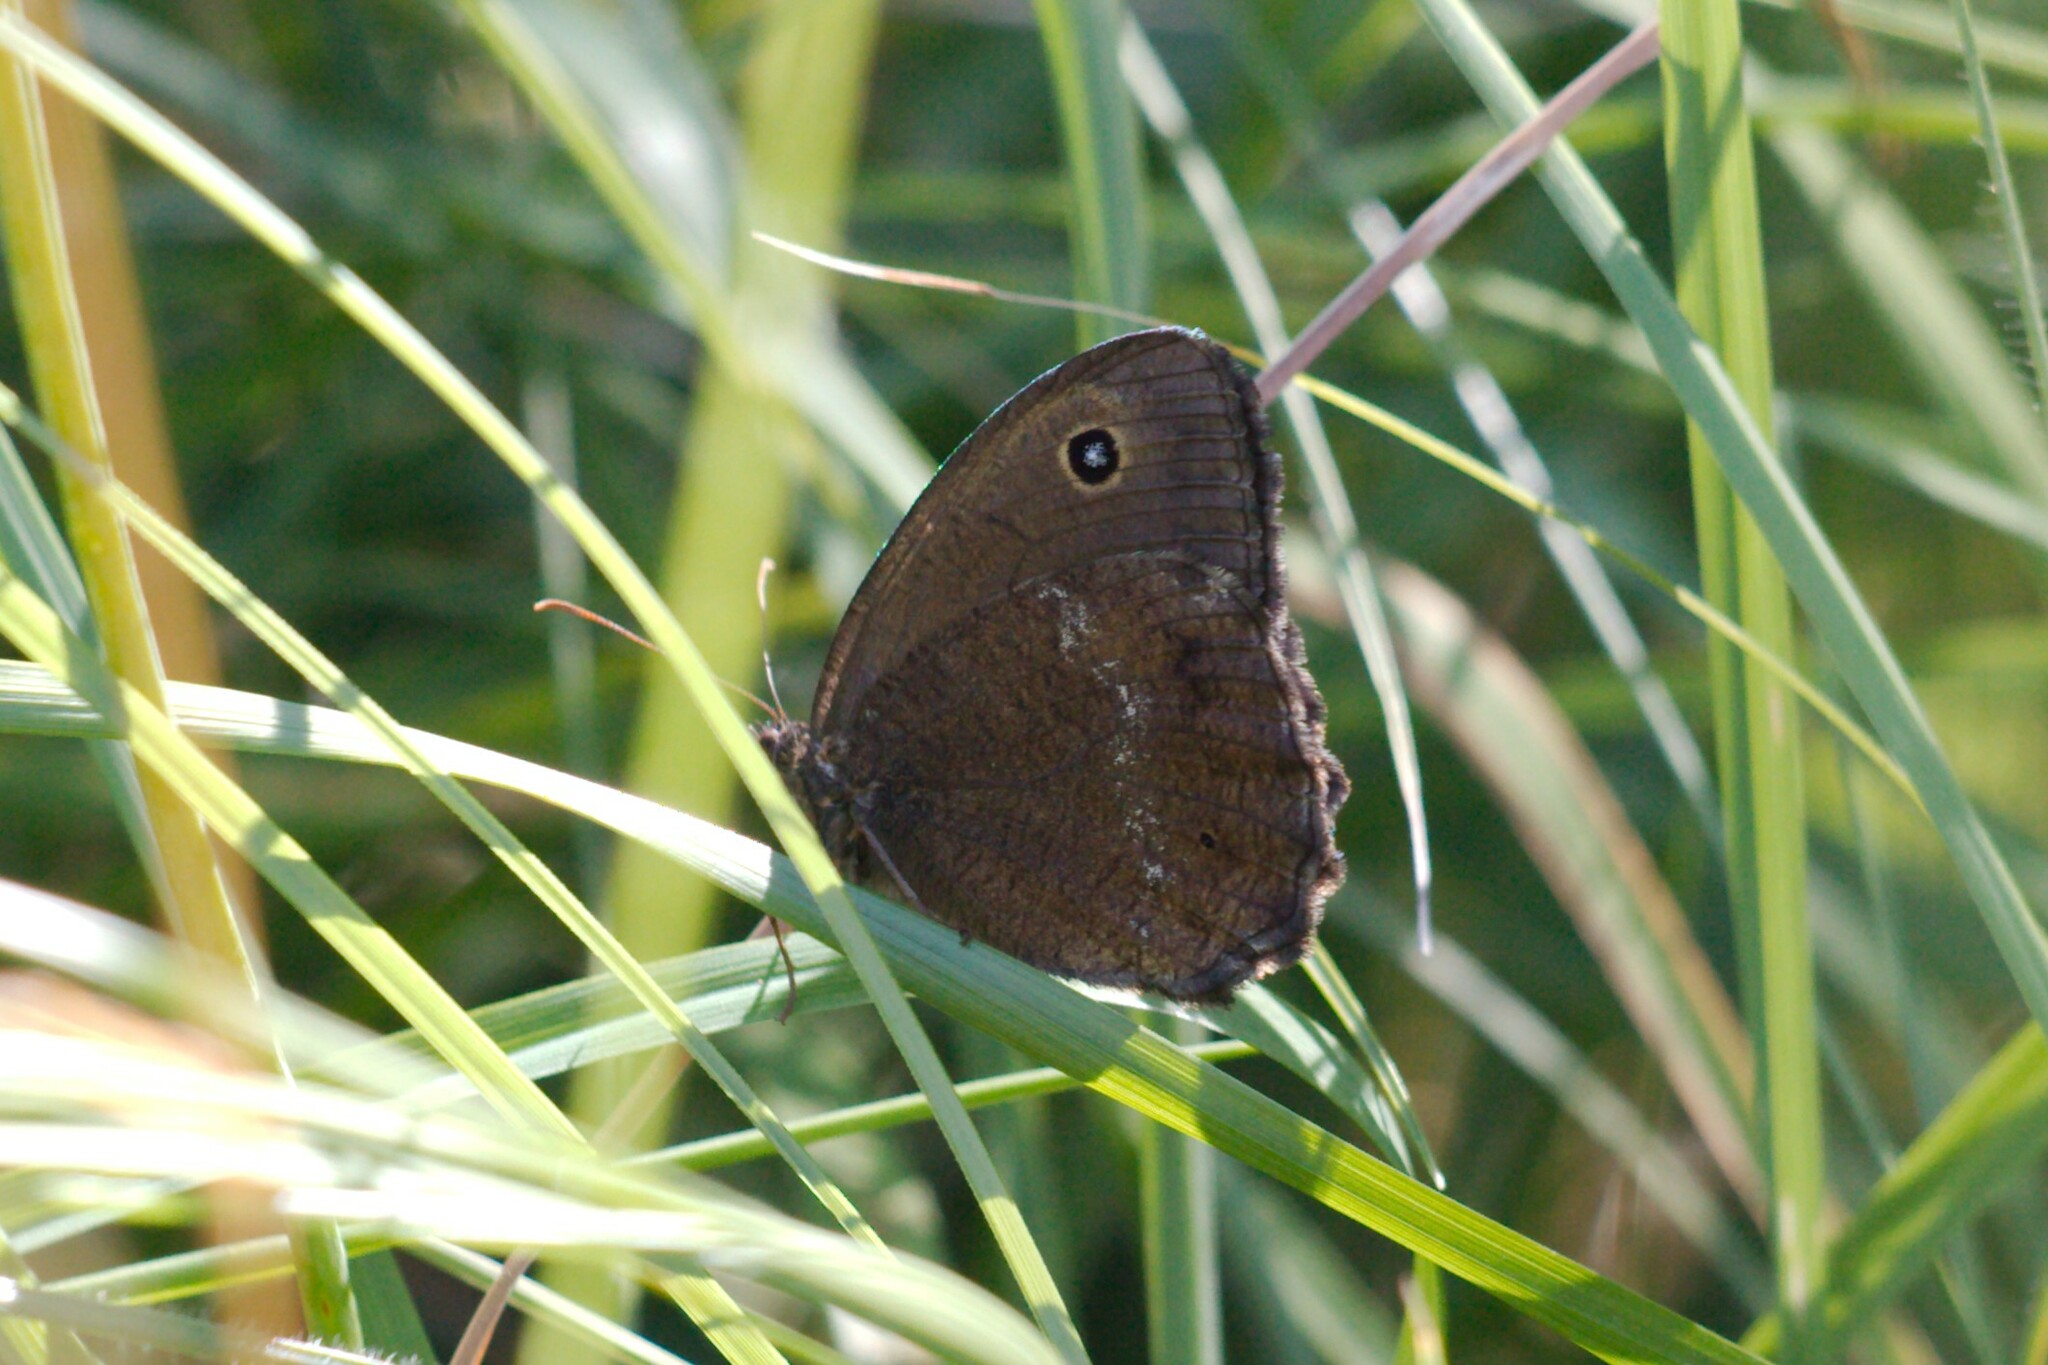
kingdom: Animalia
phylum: Arthropoda
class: Insecta
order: Lepidoptera
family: Nymphalidae
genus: Minois
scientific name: Minois dryas
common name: Dryad
